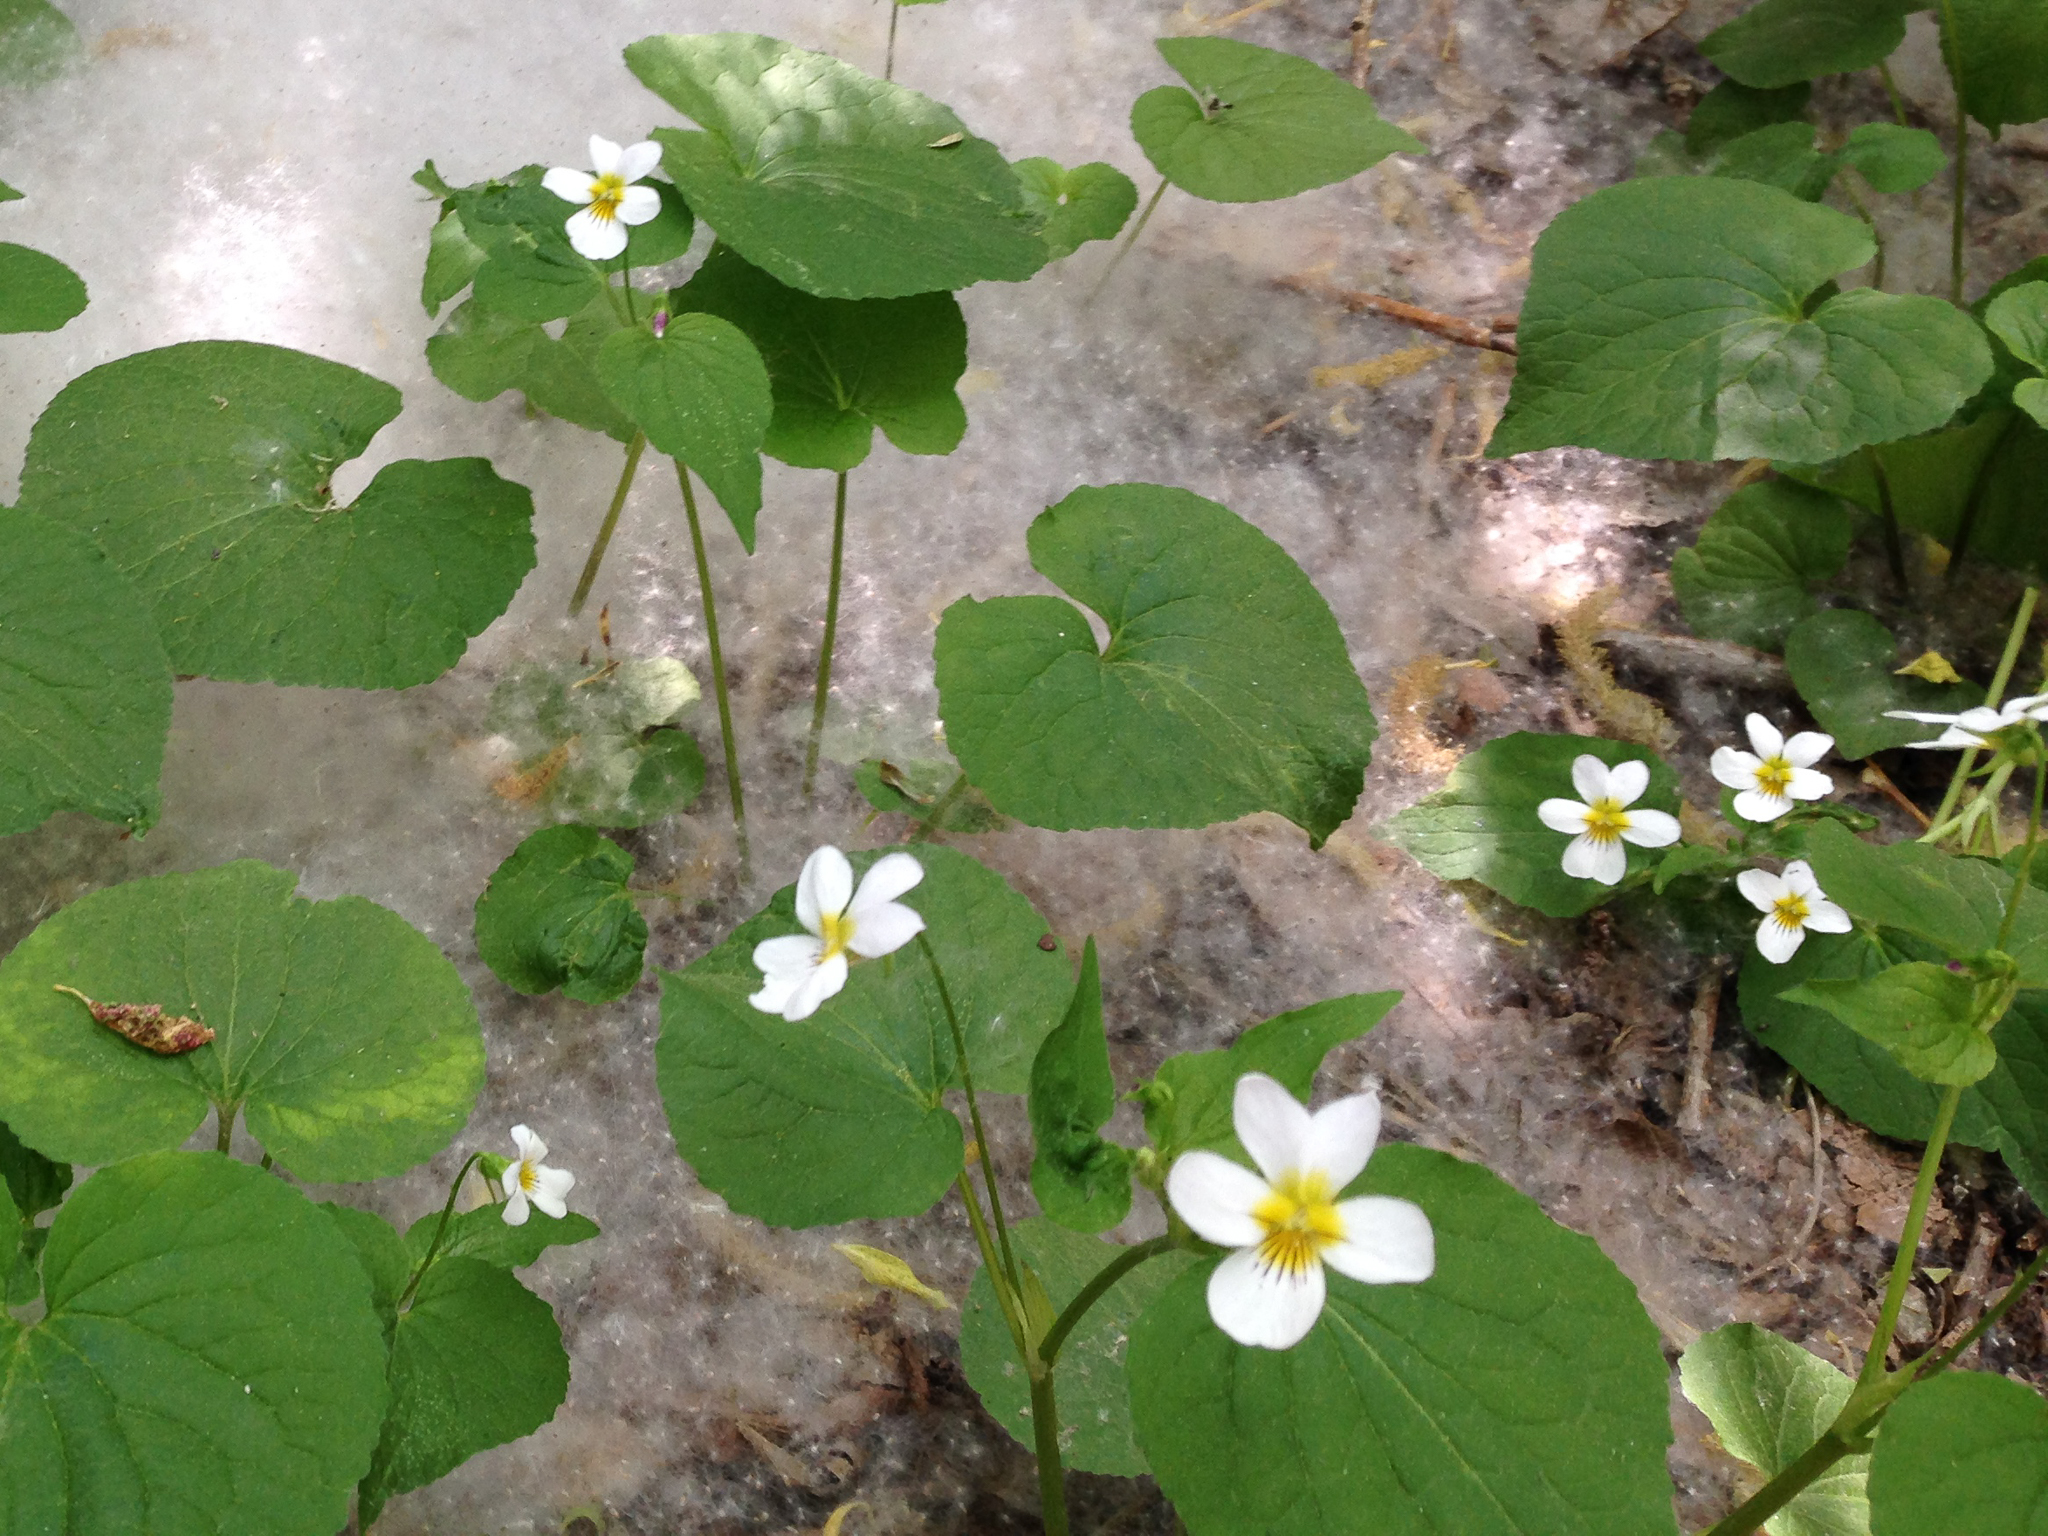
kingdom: Plantae
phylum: Tracheophyta
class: Magnoliopsida
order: Malpighiales
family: Violaceae
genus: Viola
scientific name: Viola canadensis
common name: Canada violet
